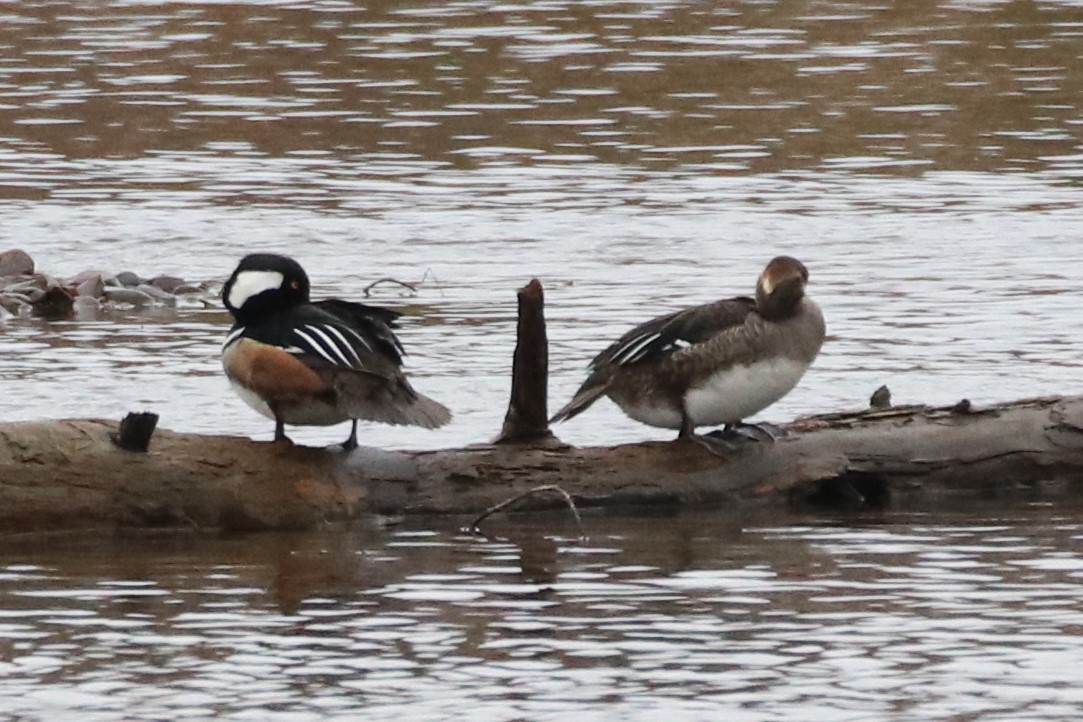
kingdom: Animalia
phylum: Chordata
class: Aves
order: Anseriformes
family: Anatidae
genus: Lophodytes
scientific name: Lophodytes cucullatus
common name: Hooded merganser
